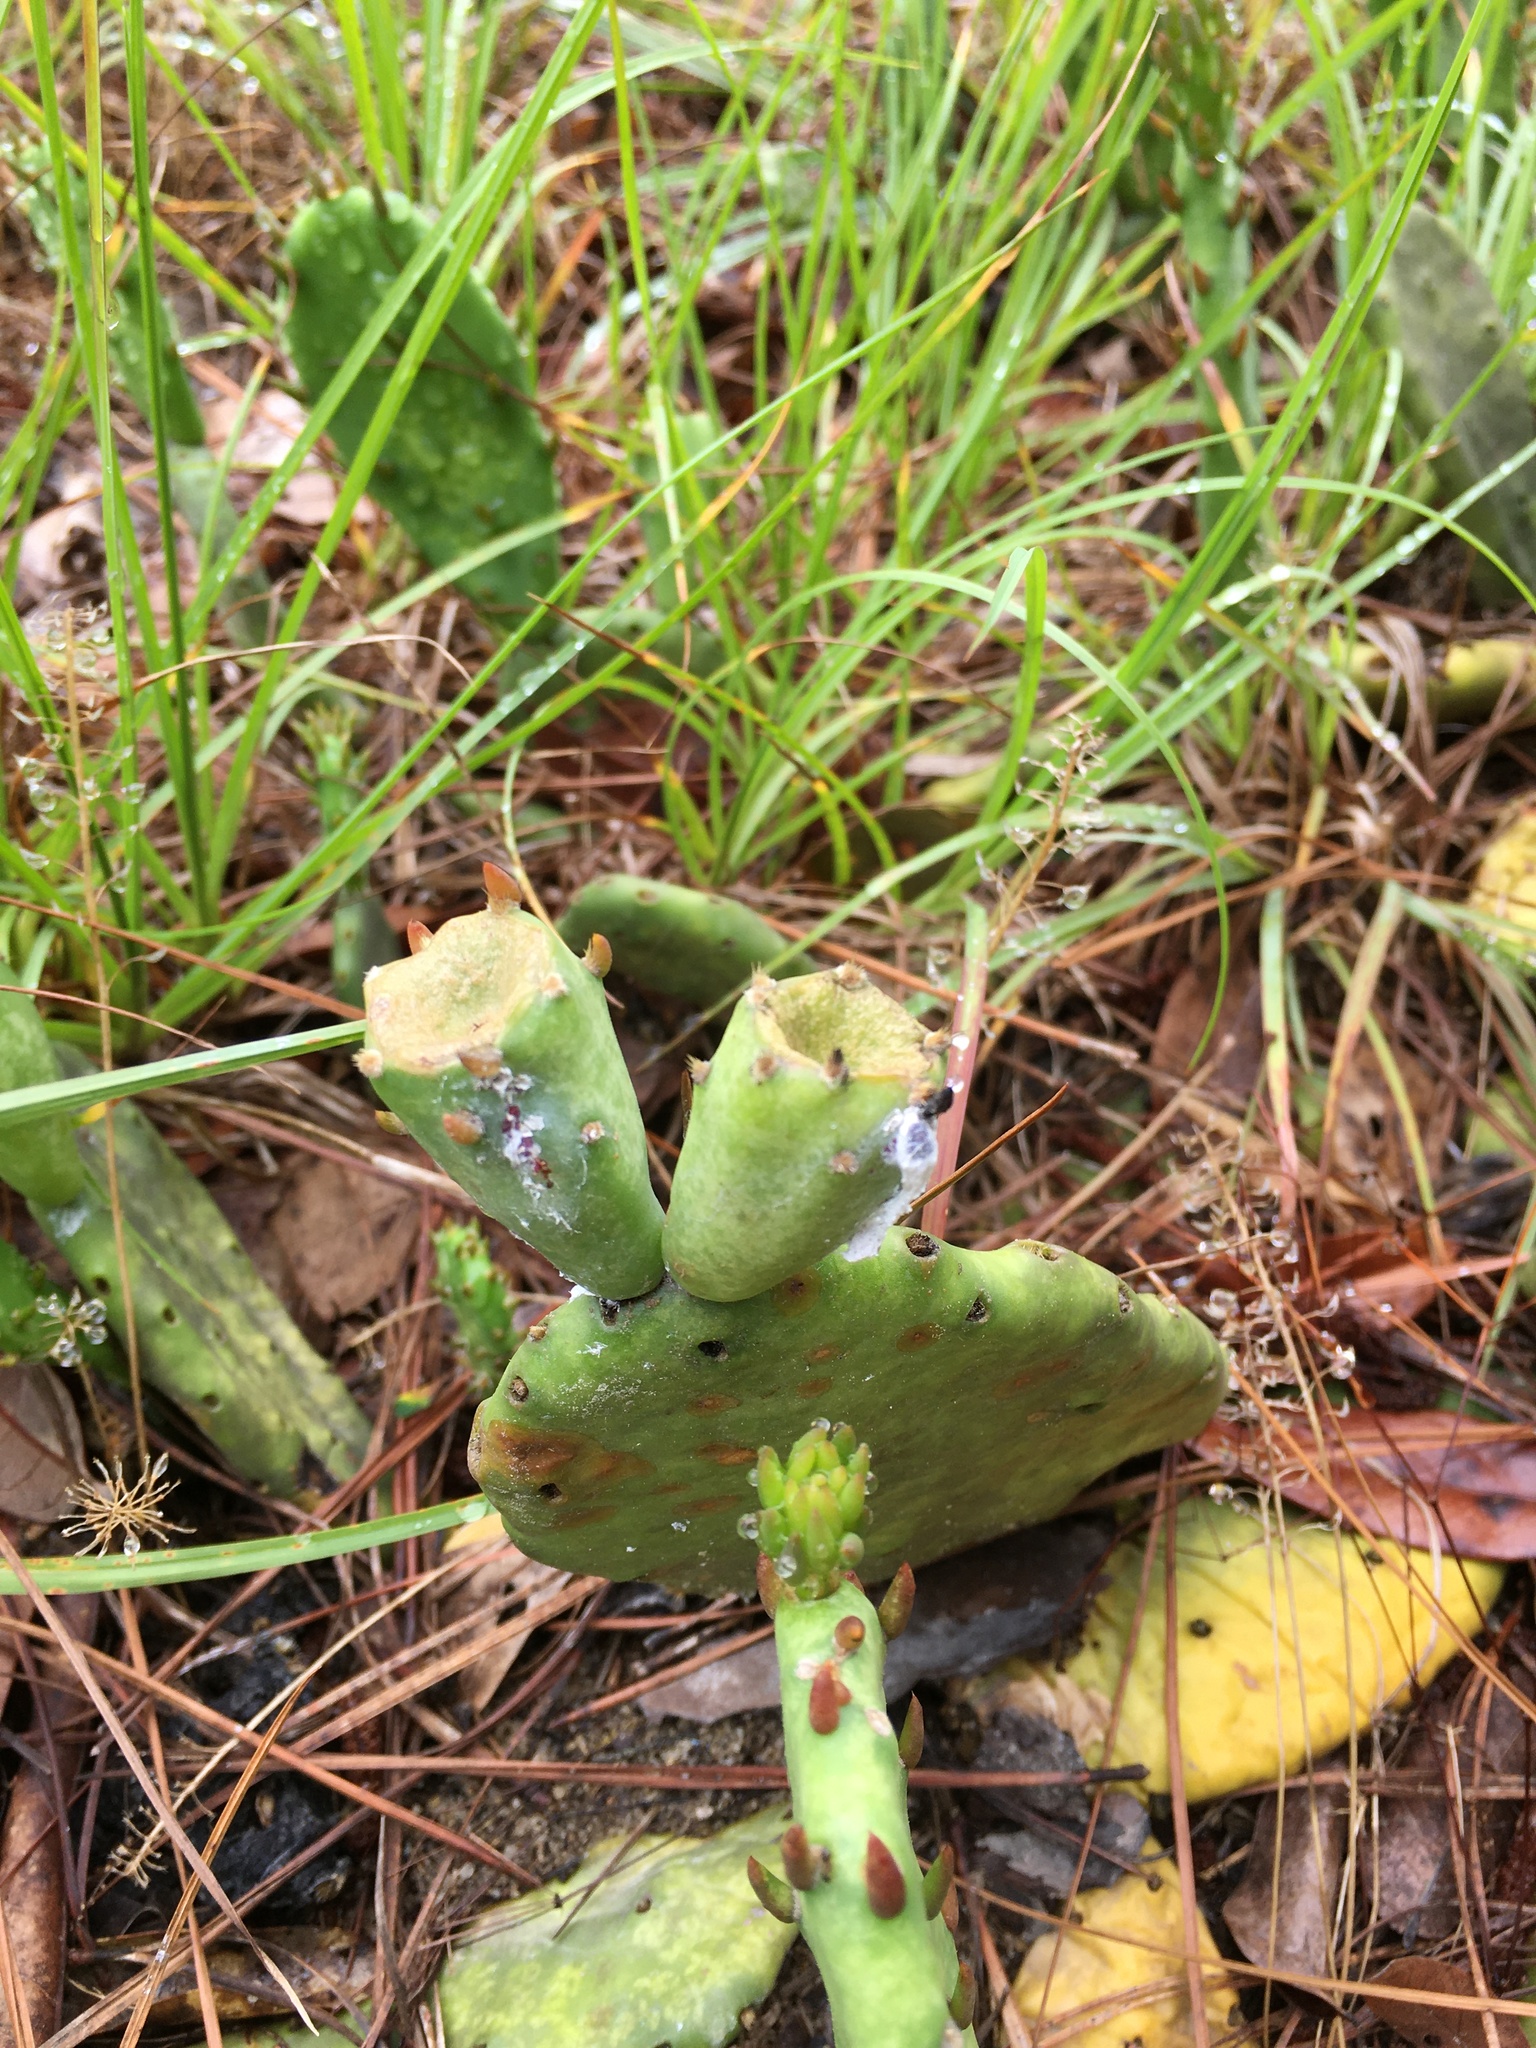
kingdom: Plantae
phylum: Tracheophyta
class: Magnoliopsida
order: Caryophyllales
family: Cactaceae
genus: Opuntia
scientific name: Opuntia mesacantha
